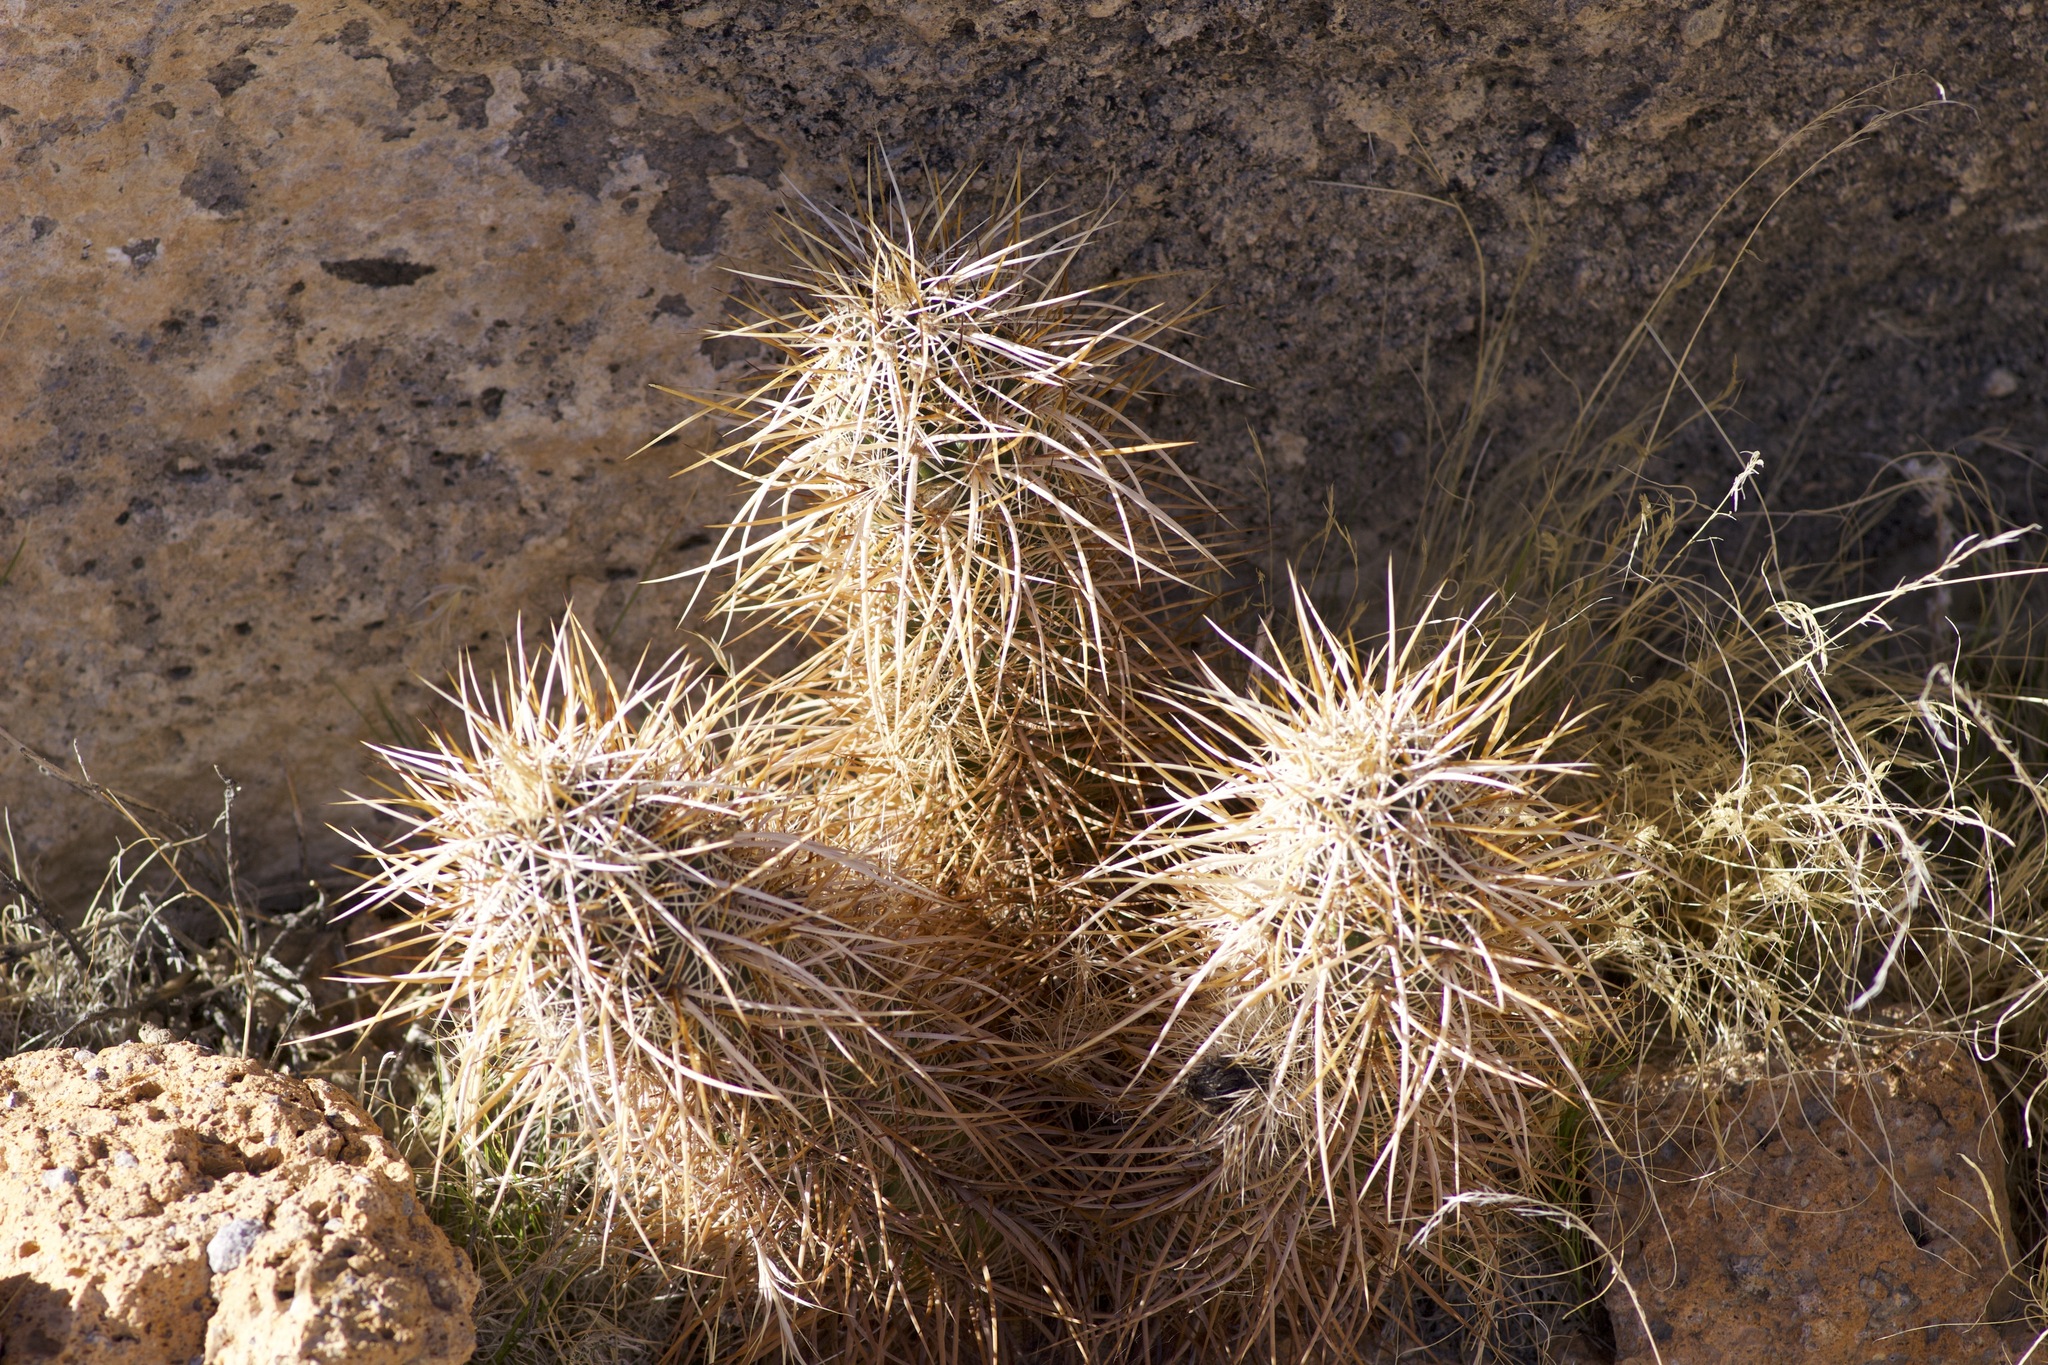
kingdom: Plantae
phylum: Tracheophyta
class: Magnoliopsida
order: Caryophyllales
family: Cactaceae
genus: Echinocereus
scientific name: Echinocereus engelmannii
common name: Engelmann's hedgehog cactus
